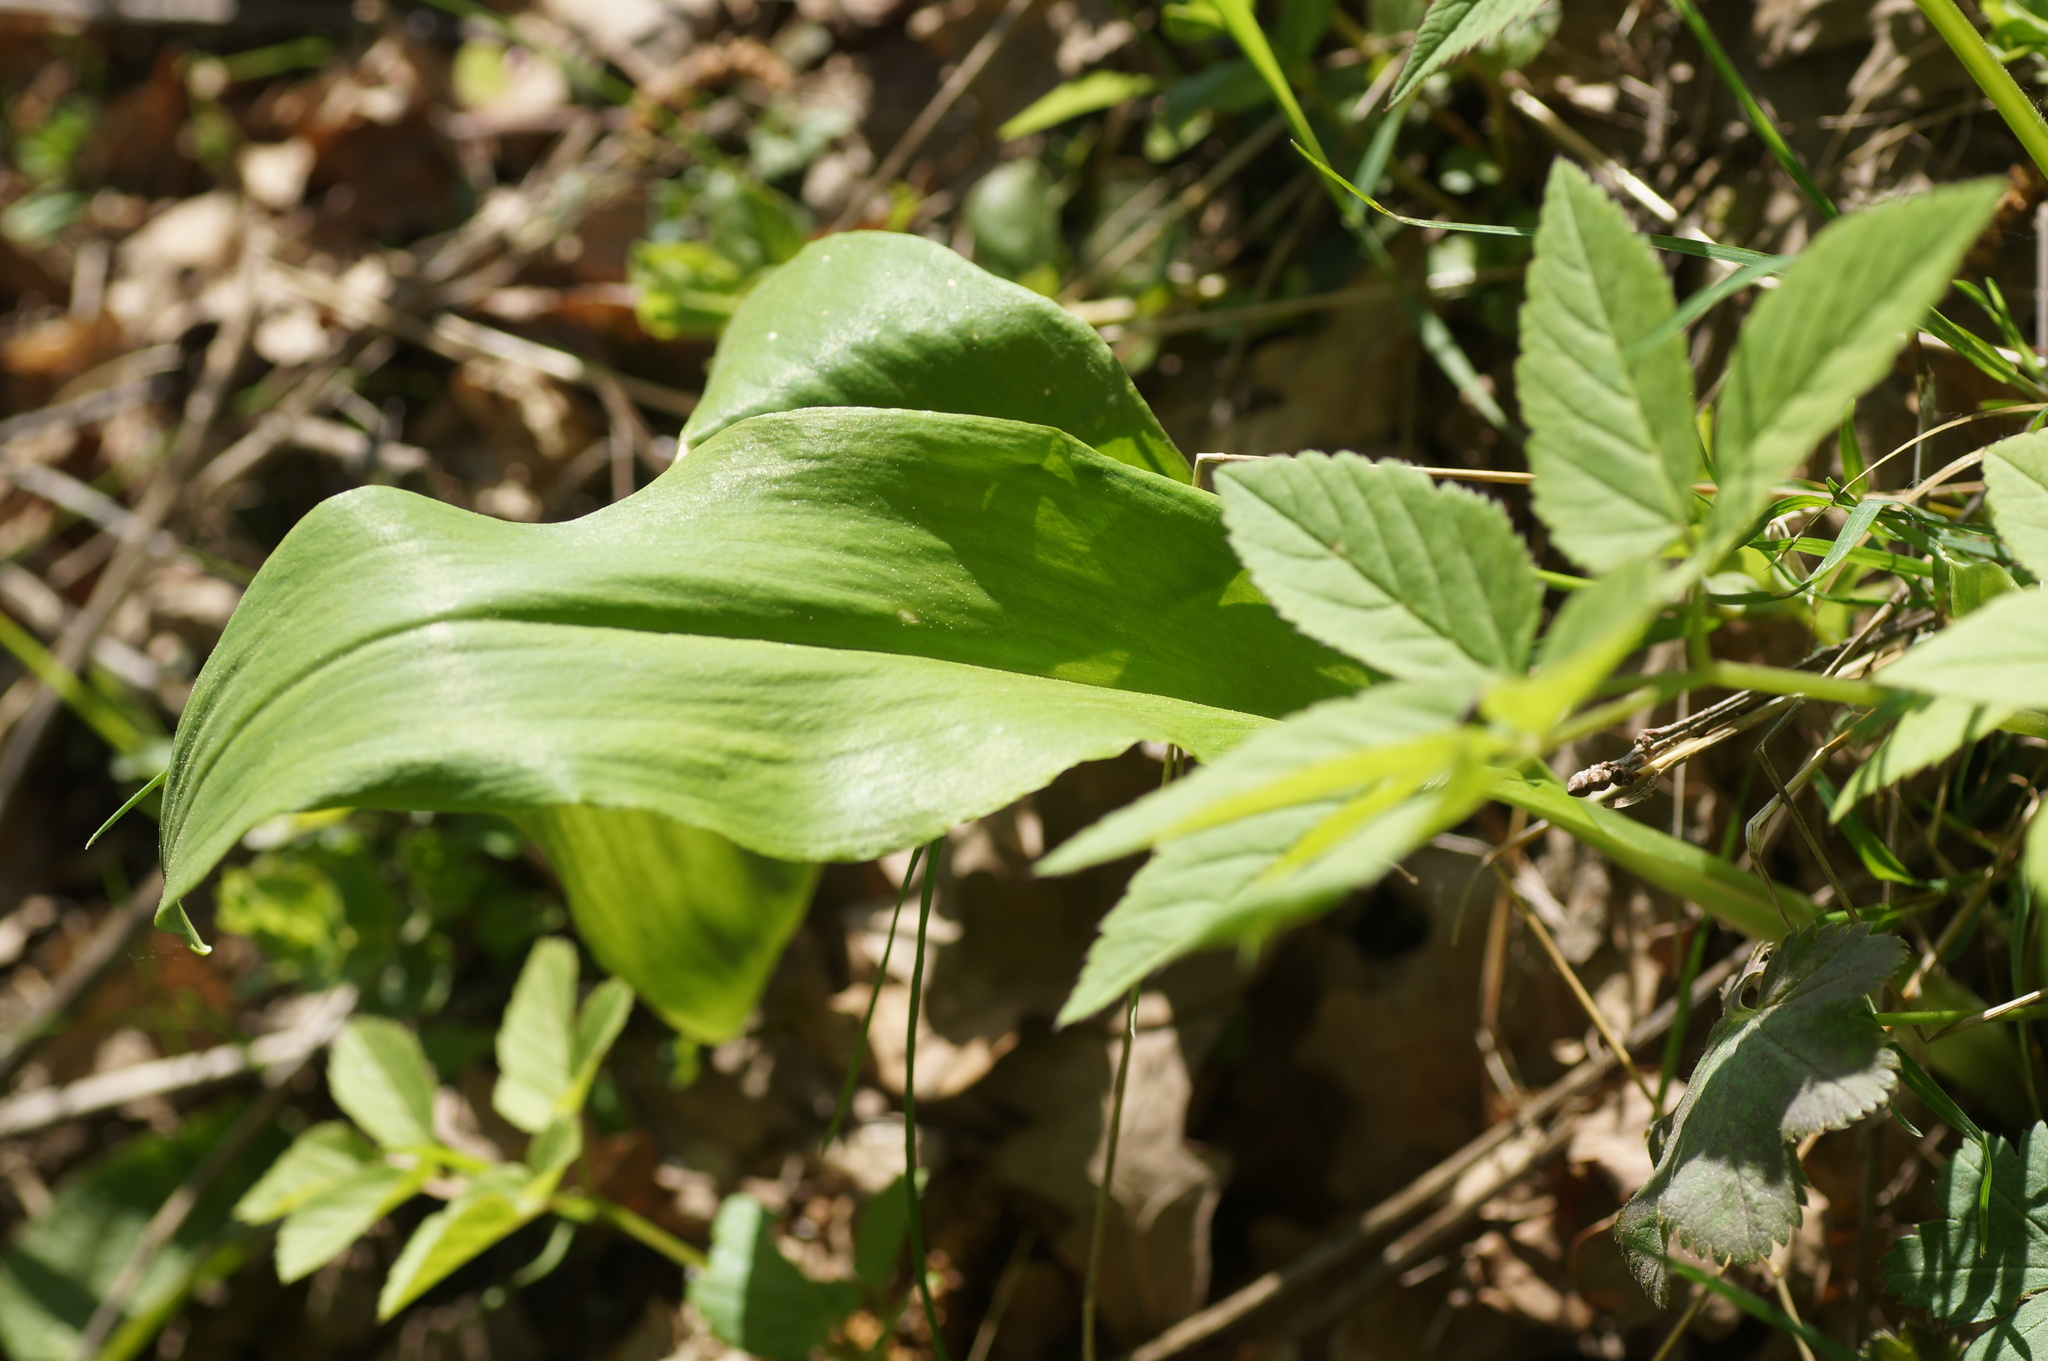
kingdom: Plantae
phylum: Tracheophyta
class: Liliopsida
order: Asparagales
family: Amaryllidaceae
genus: Allium
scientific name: Allium ursinum
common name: Ramsons
